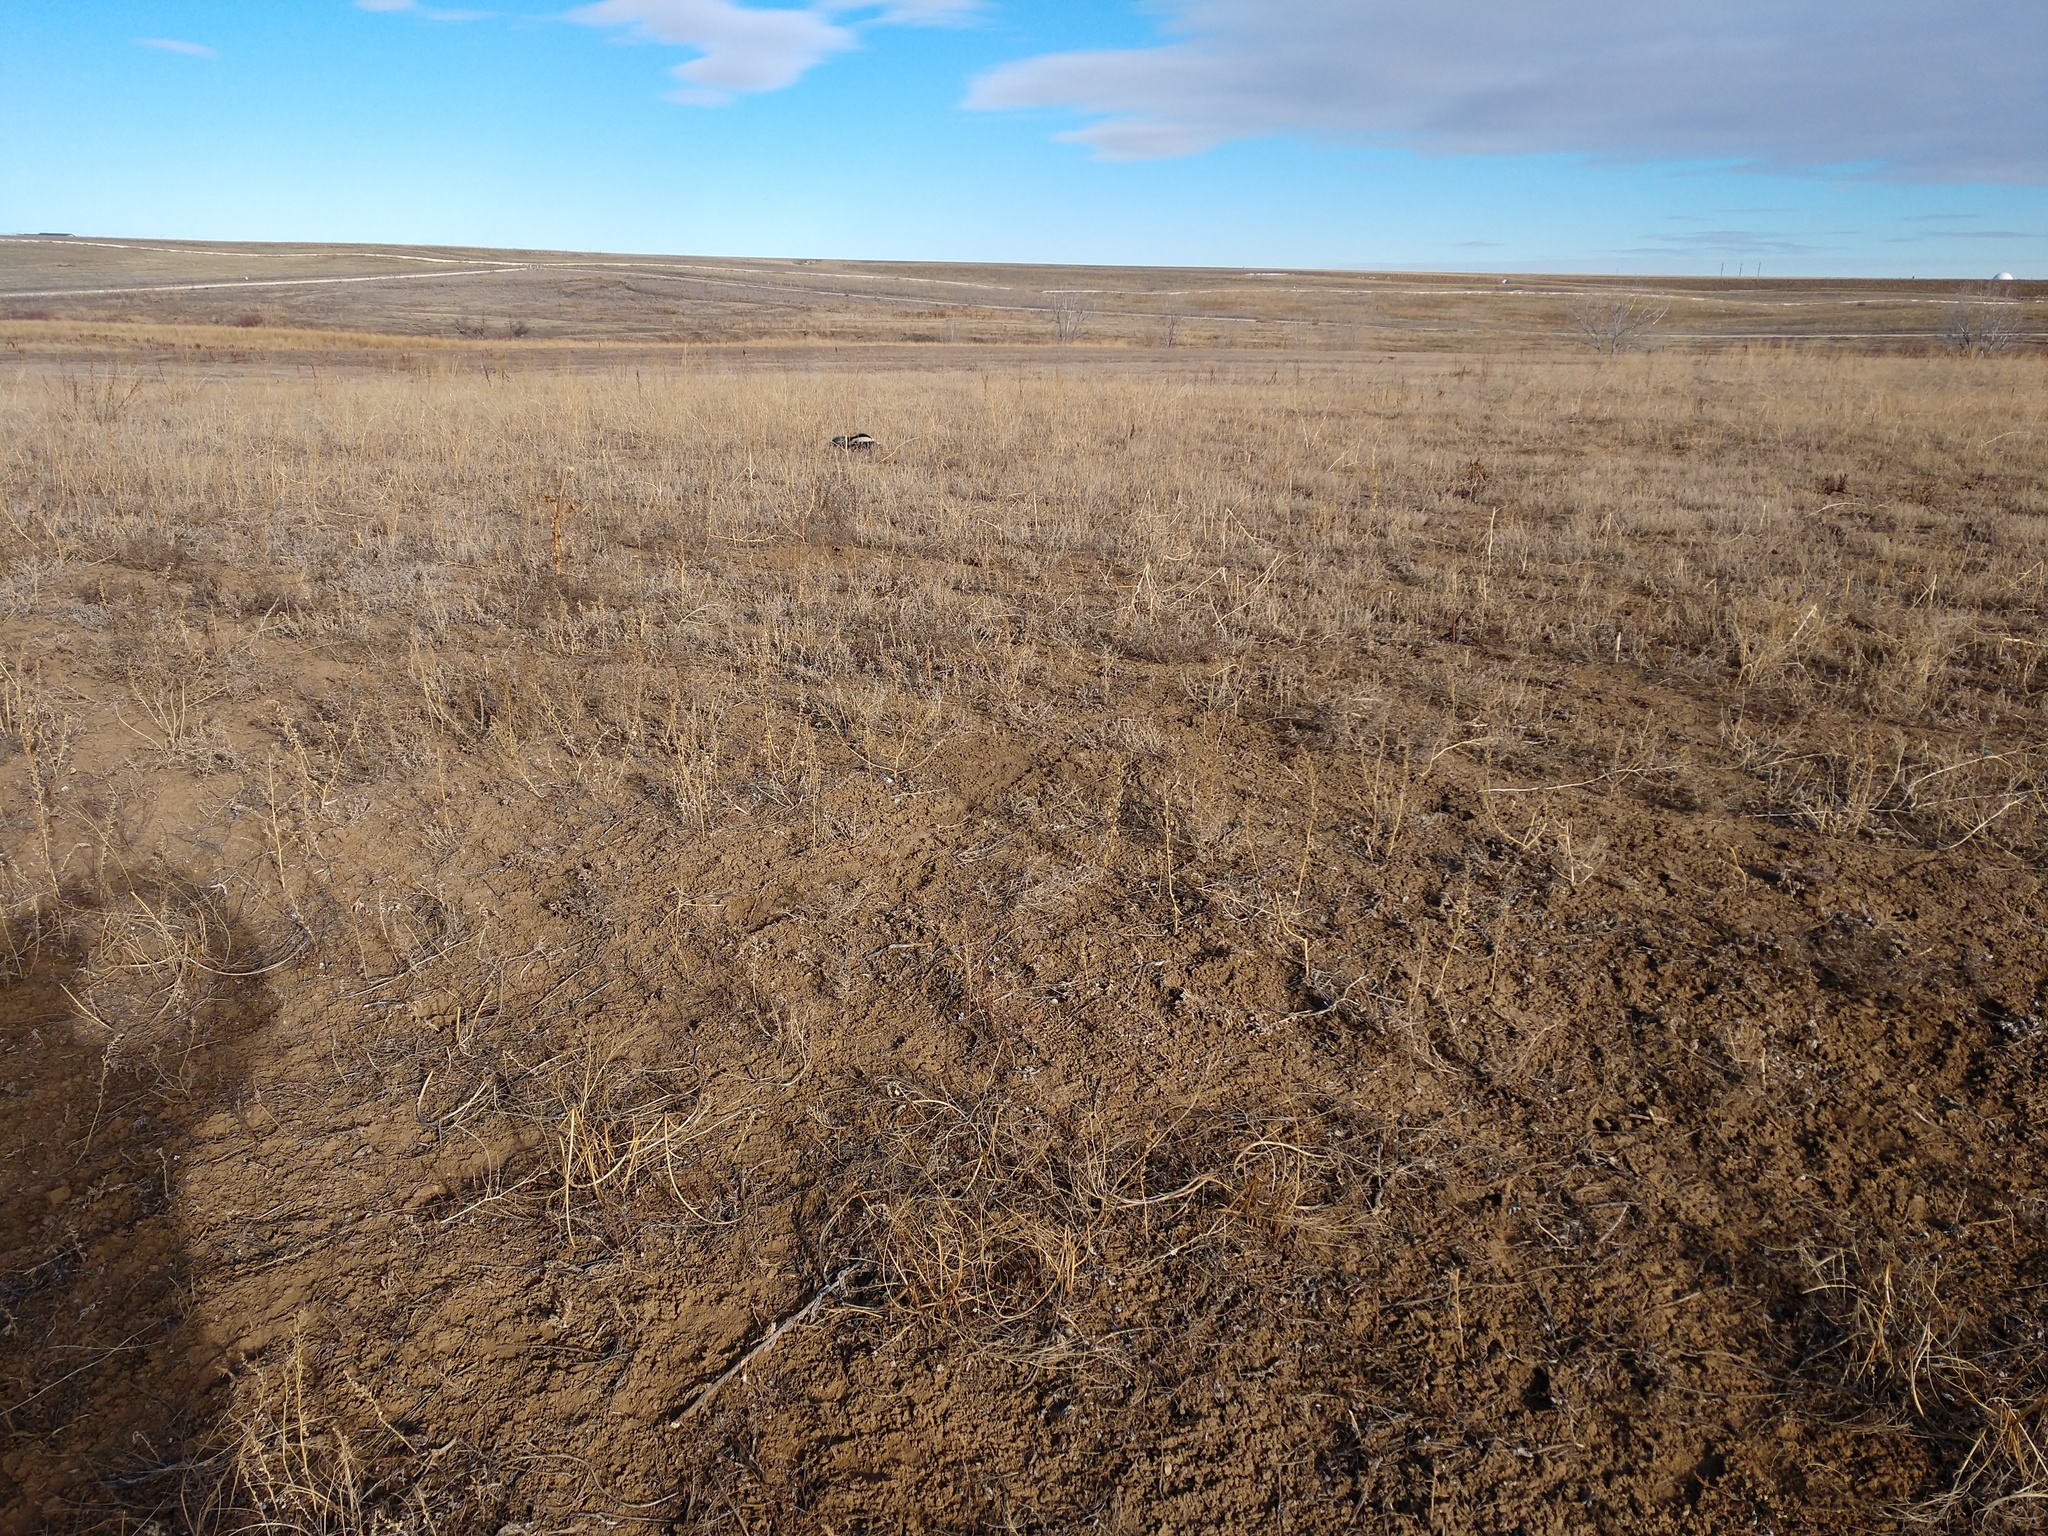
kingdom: Animalia
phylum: Chordata
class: Mammalia
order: Carnivora
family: Mephitidae
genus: Mephitis
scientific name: Mephitis mephitis
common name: Striped skunk
